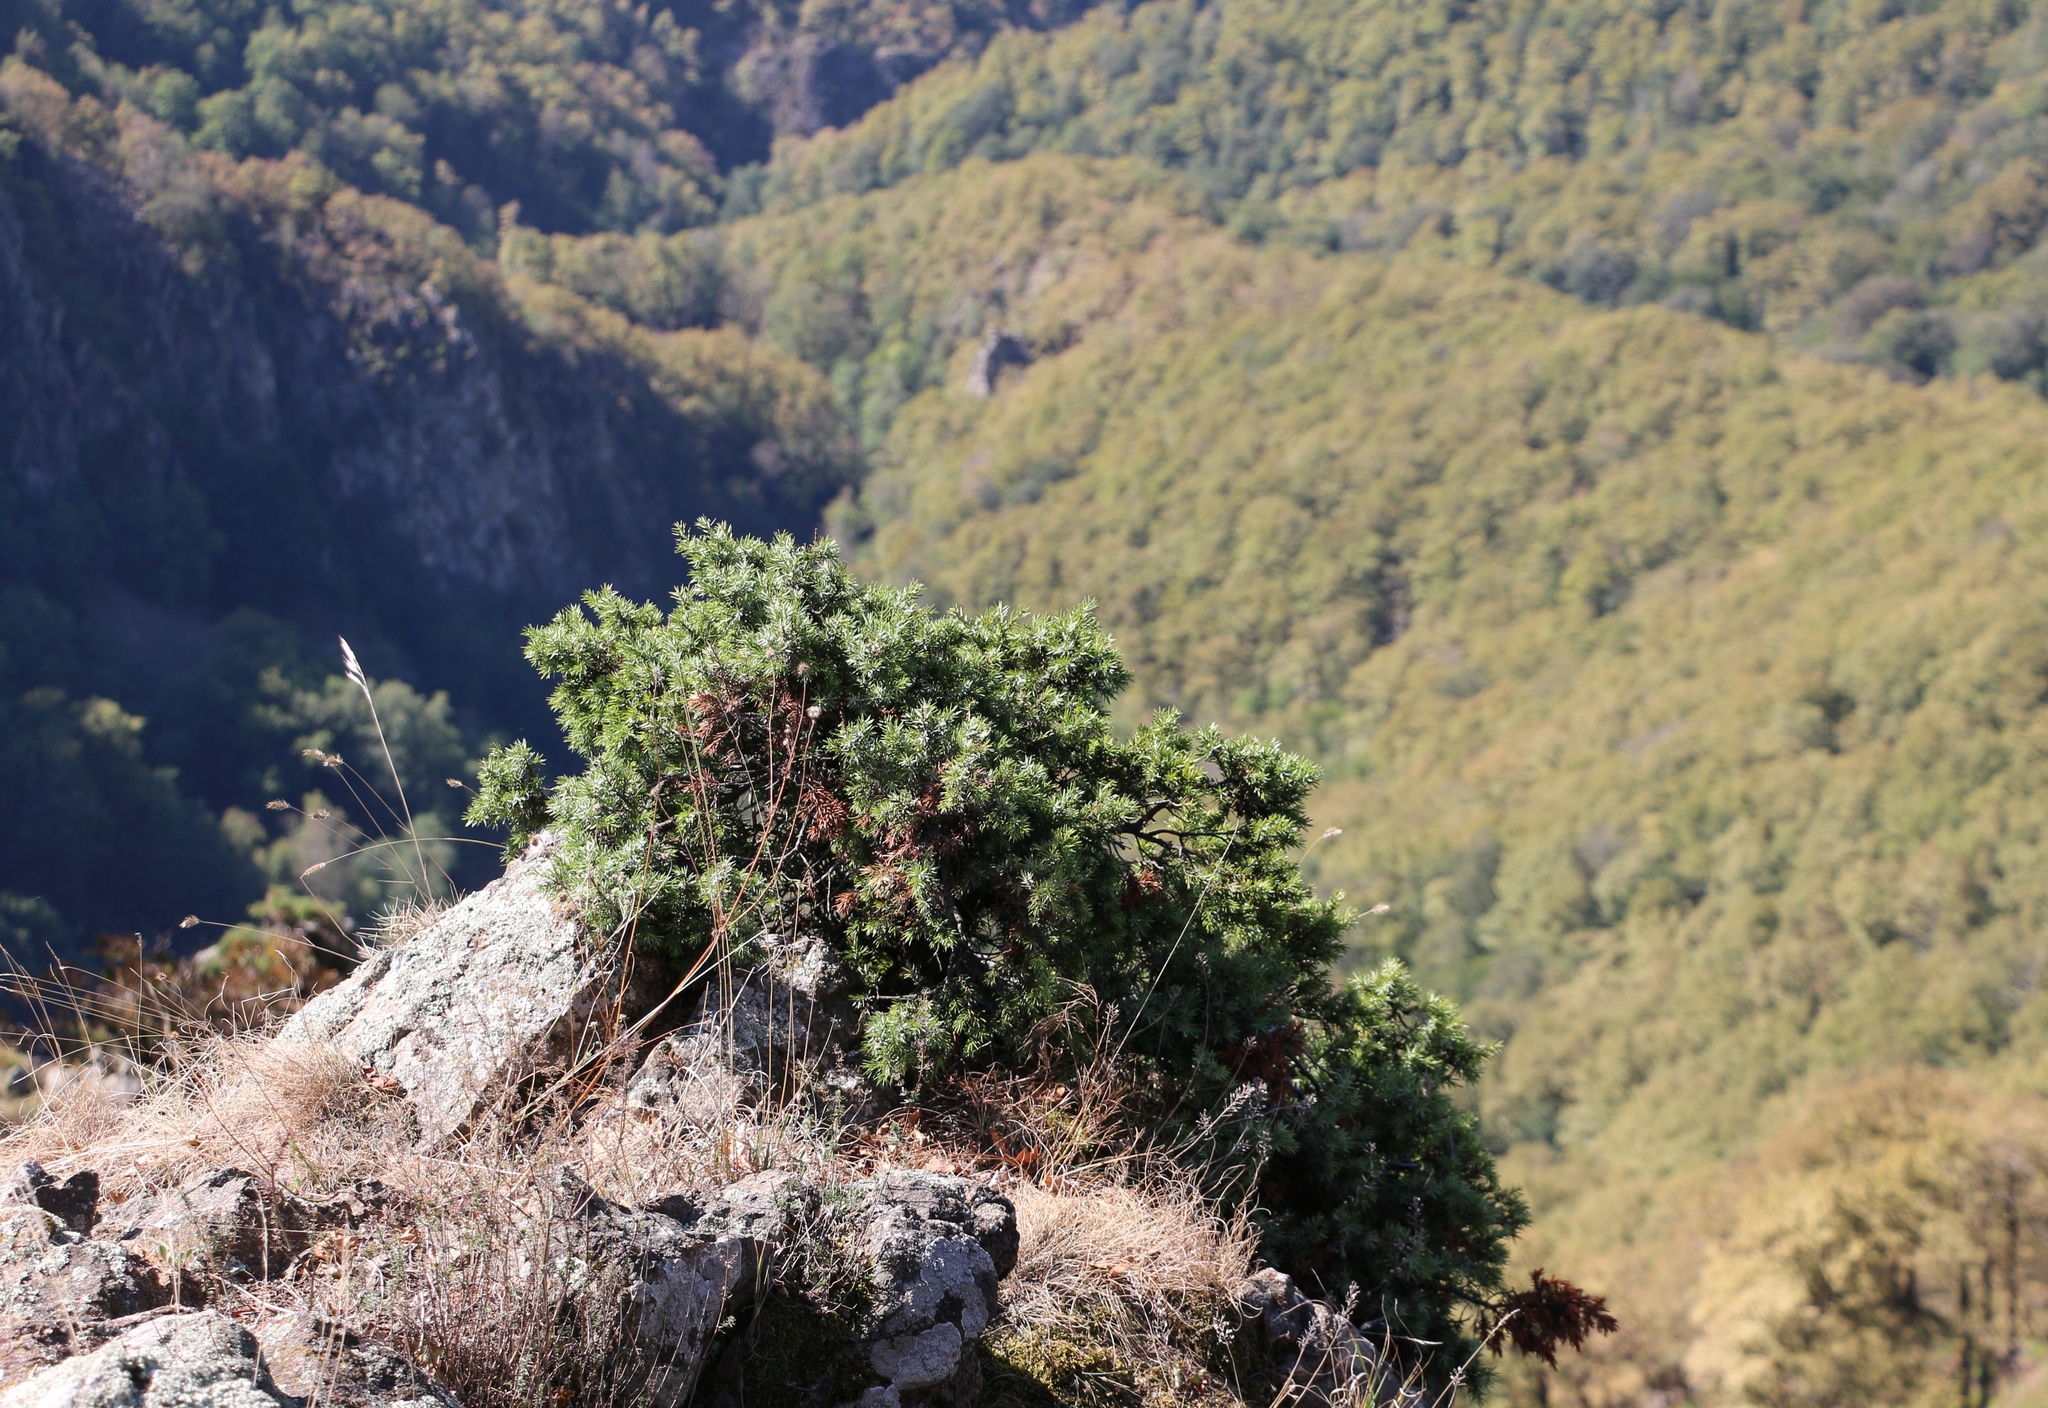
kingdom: Plantae
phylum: Tracheophyta
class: Pinopsida
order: Pinales
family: Cupressaceae
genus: Juniperus
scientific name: Juniperus communis
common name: Common juniper
